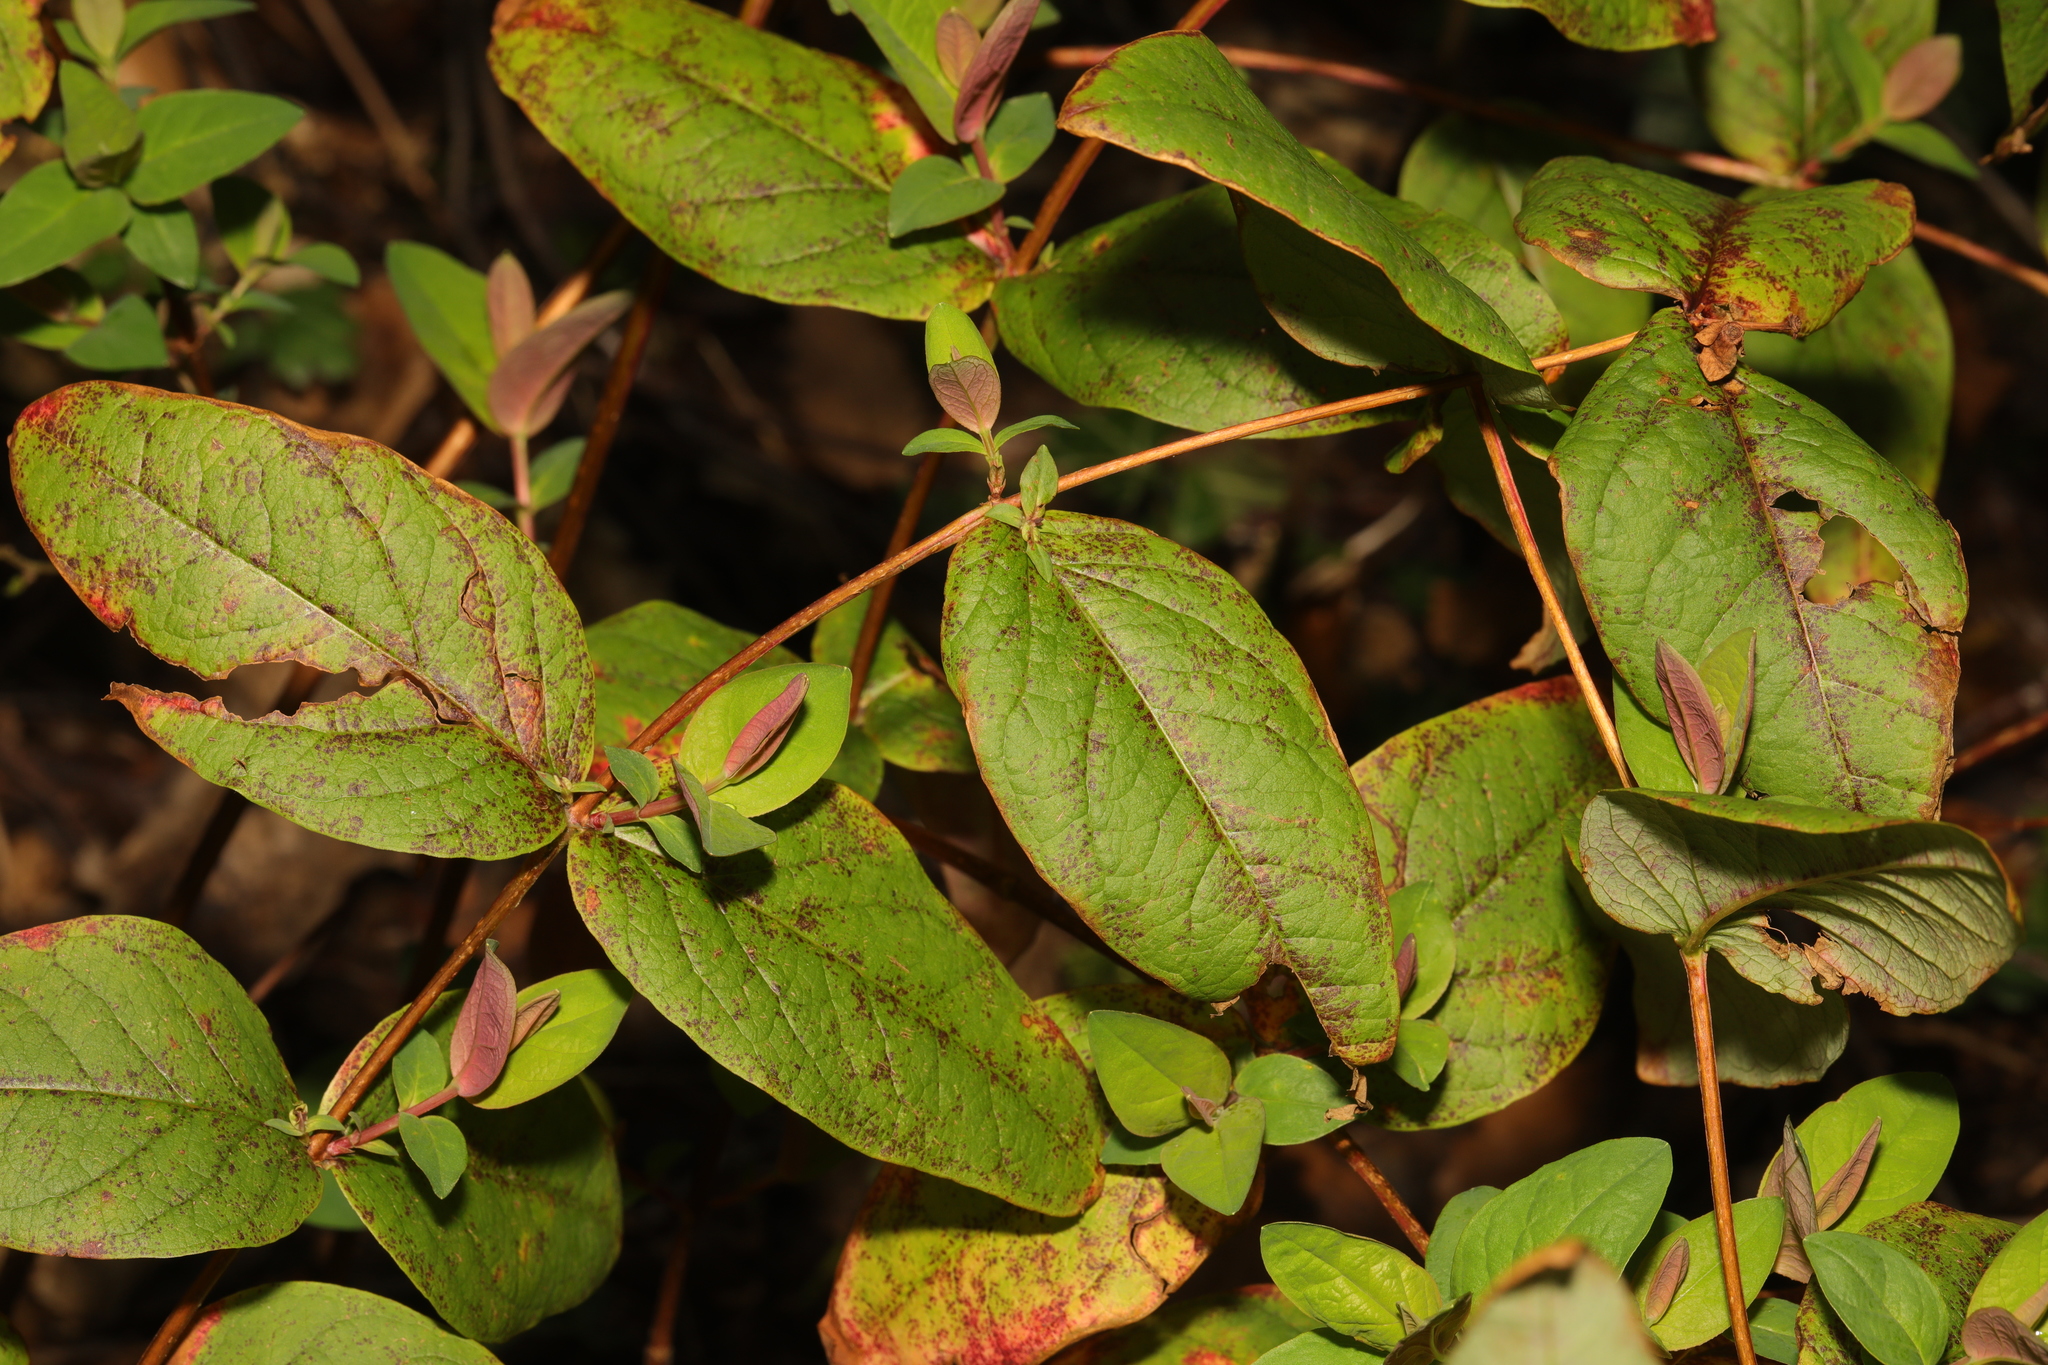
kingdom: Plantae
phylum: Tracheophyta
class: Magnoliopsida
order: Malpighiales
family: Hypericaceae
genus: Hypericum
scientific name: Hypericum androsaemum
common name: Sweet-amber
